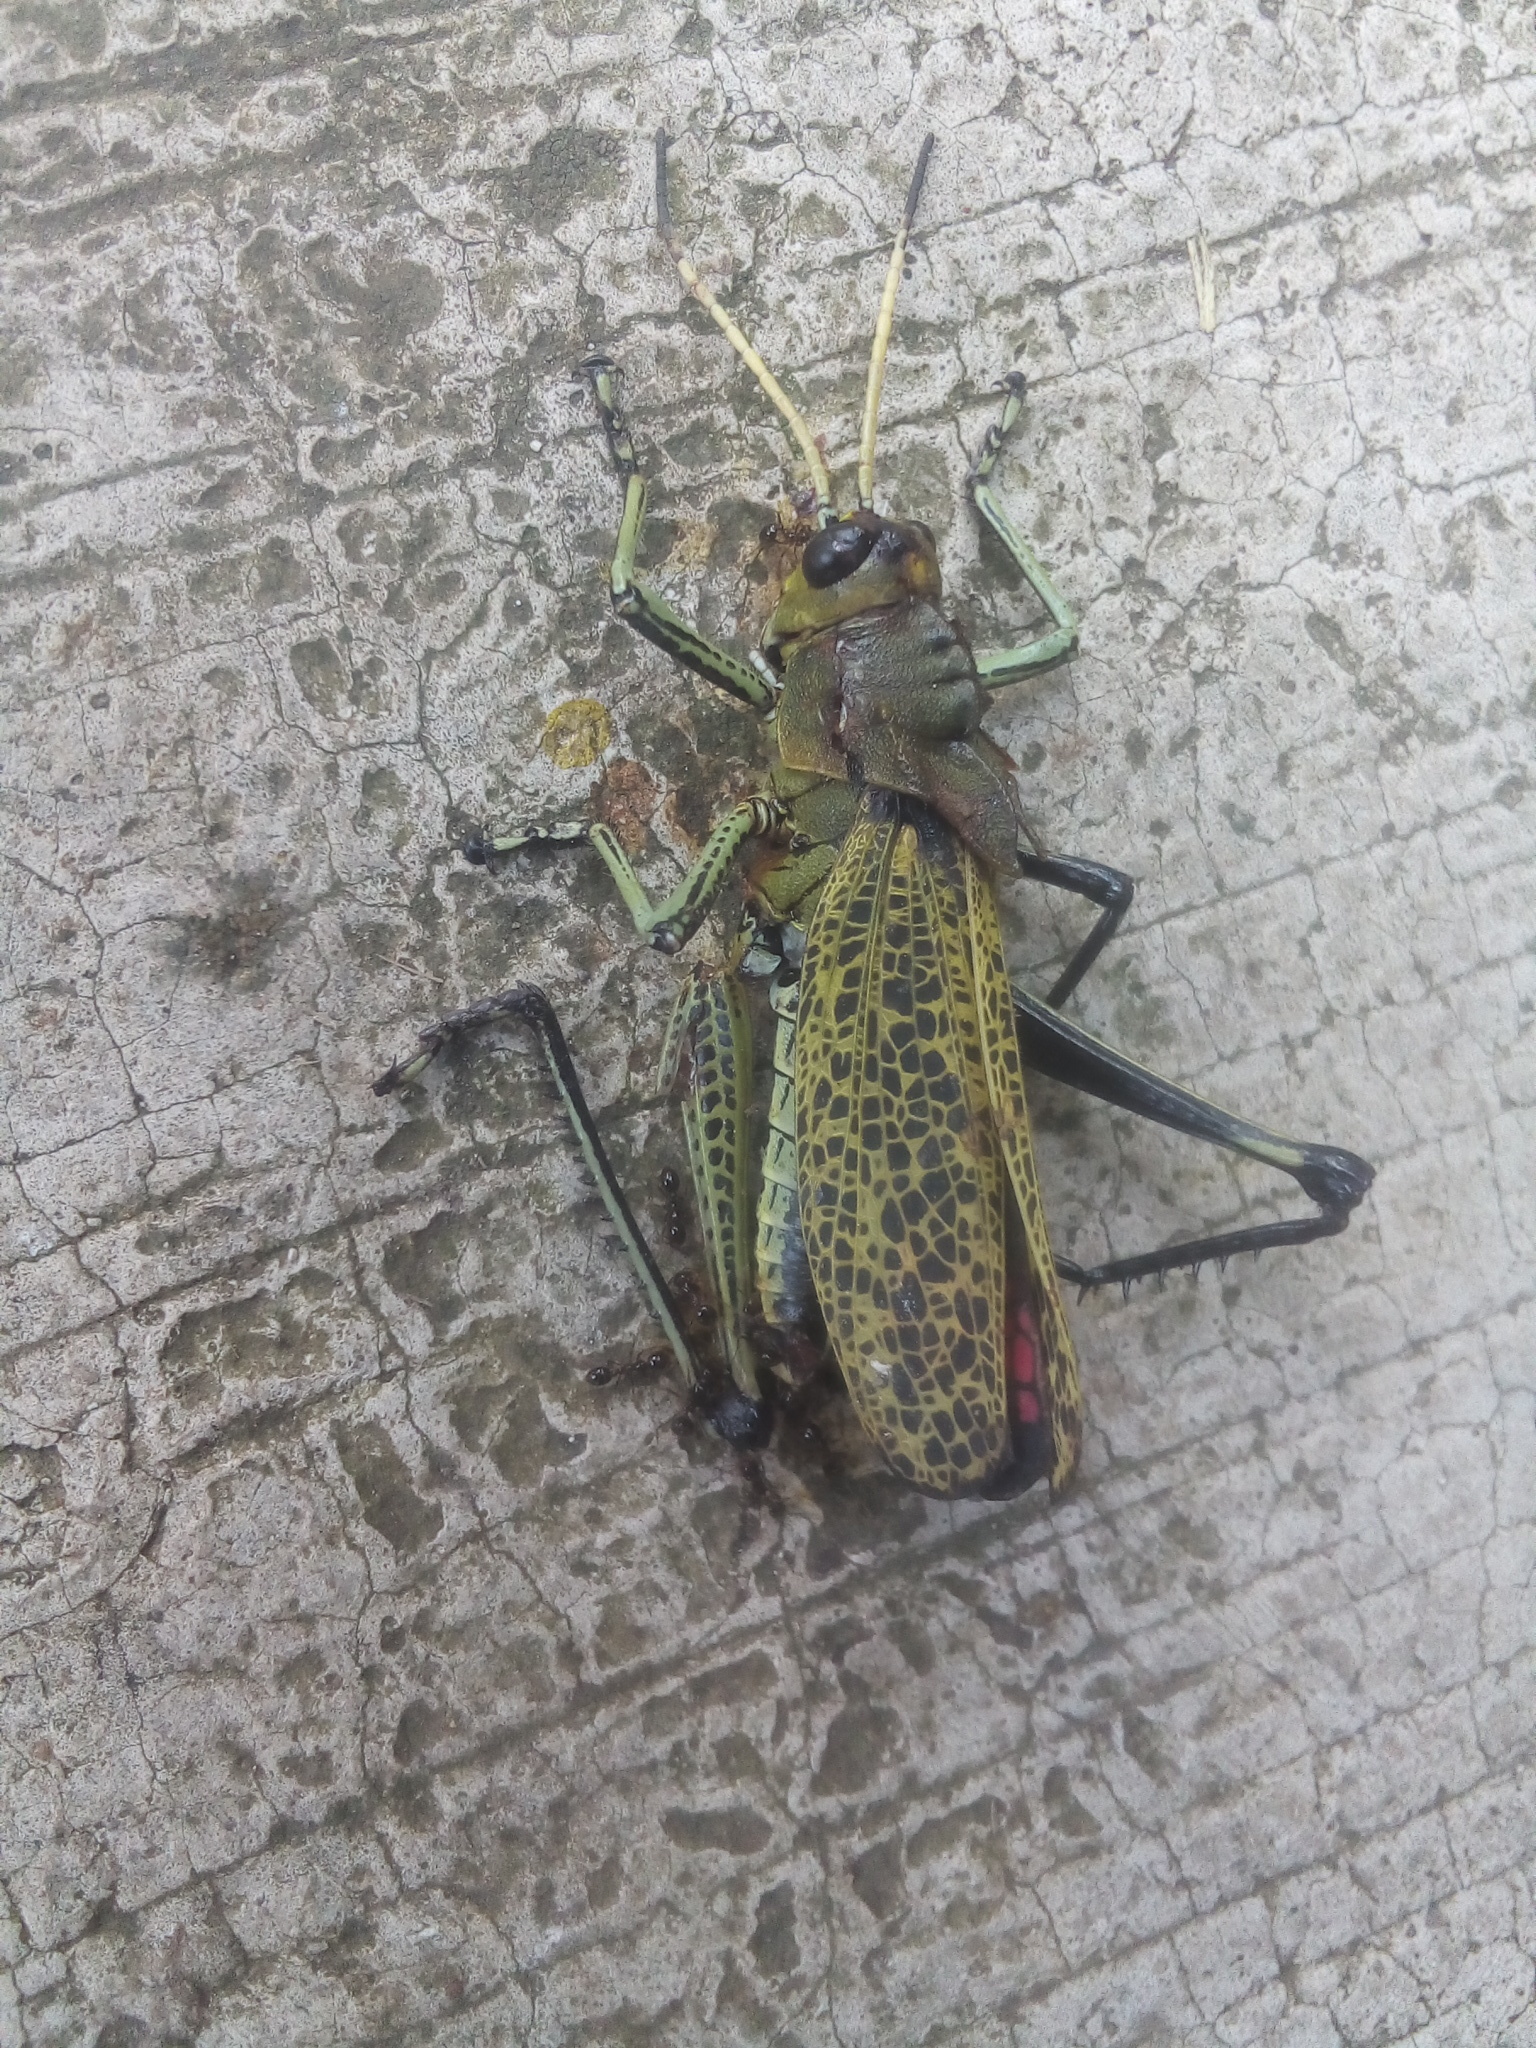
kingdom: Animalia
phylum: Arthropoda
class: Insecta
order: Orthoptera
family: Romaleidae
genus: Romalea
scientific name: Romalea
